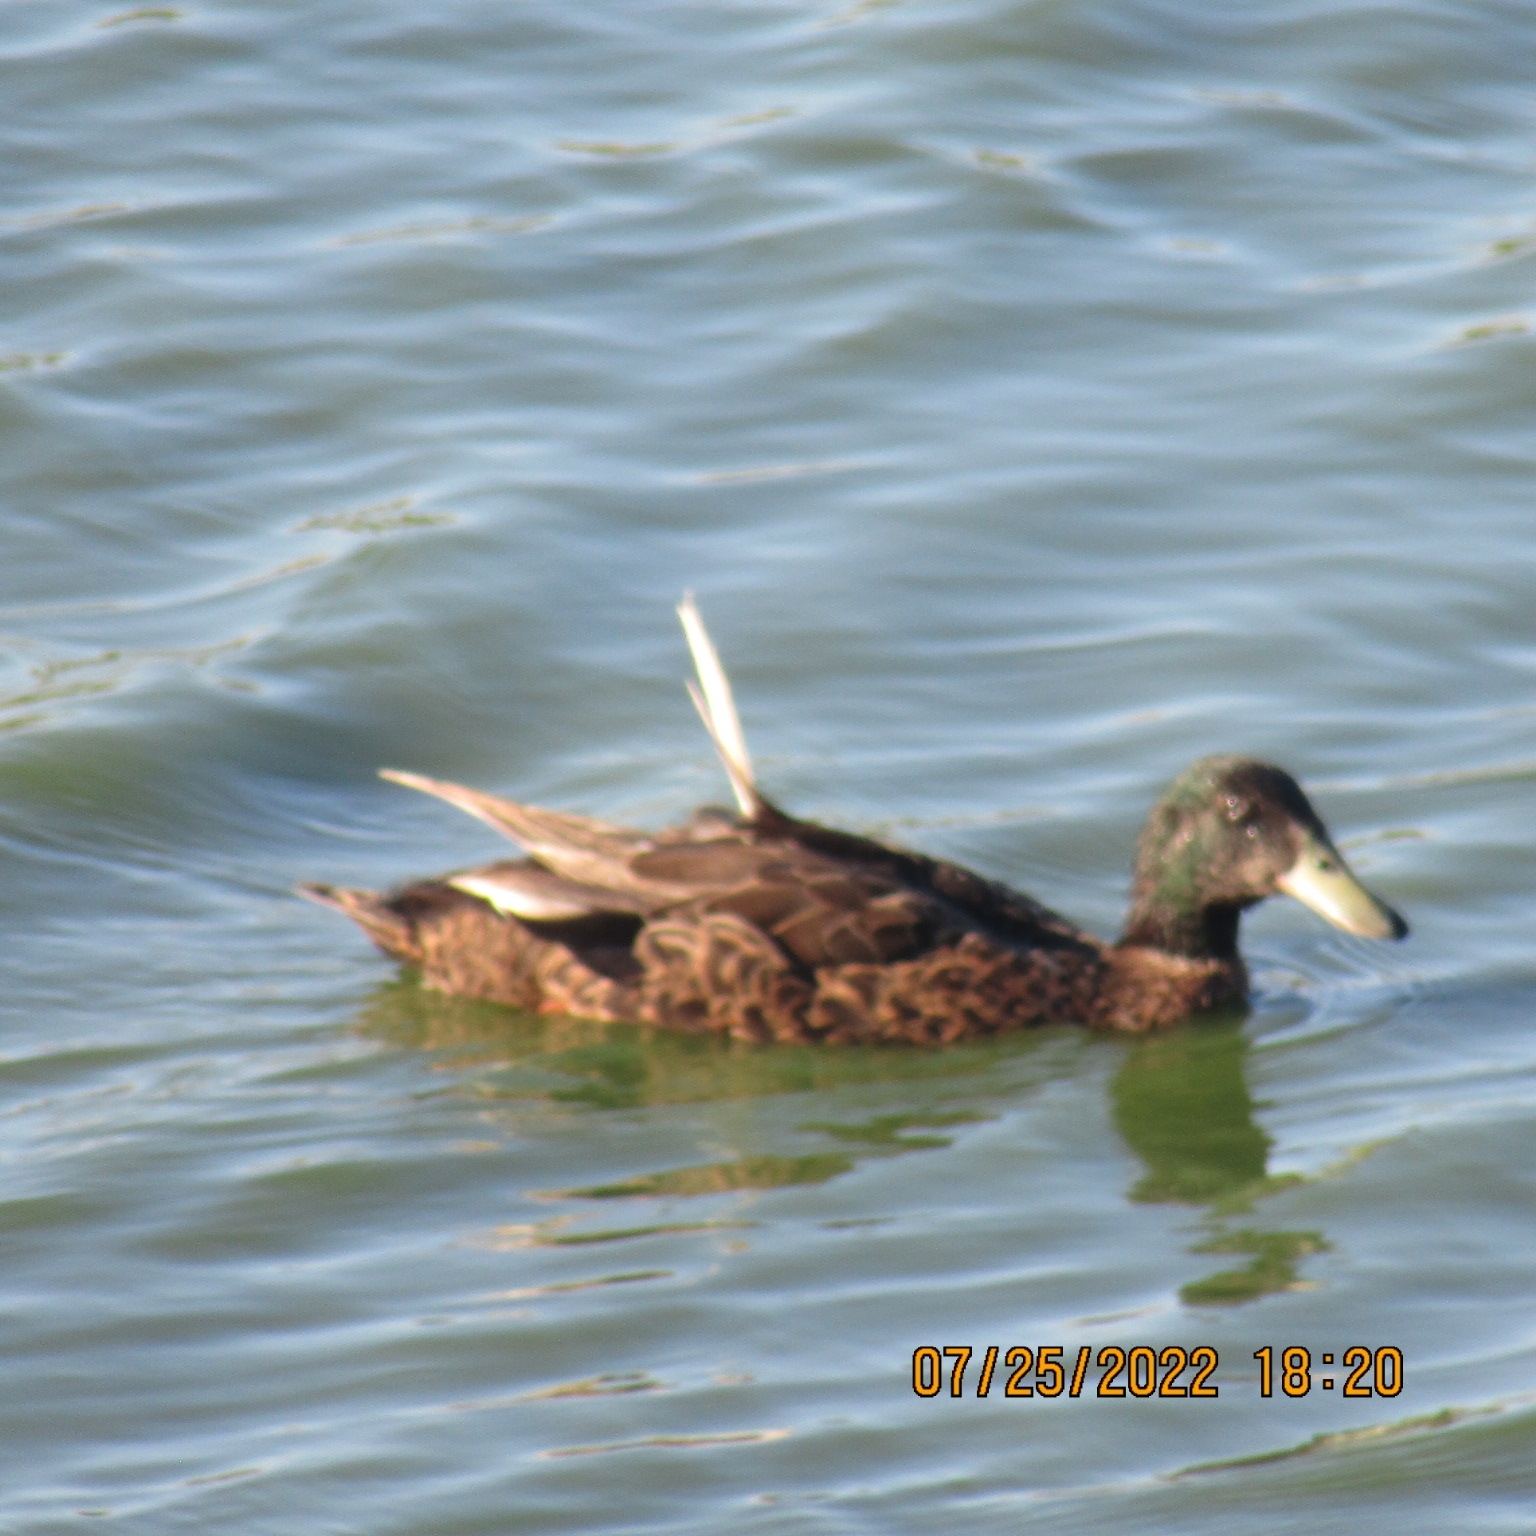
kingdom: Animalia
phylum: Chordata
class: Aves
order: Anseriformes
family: Anatidae
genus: Anas
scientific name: Anas platyrhynchos
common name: Mallard
